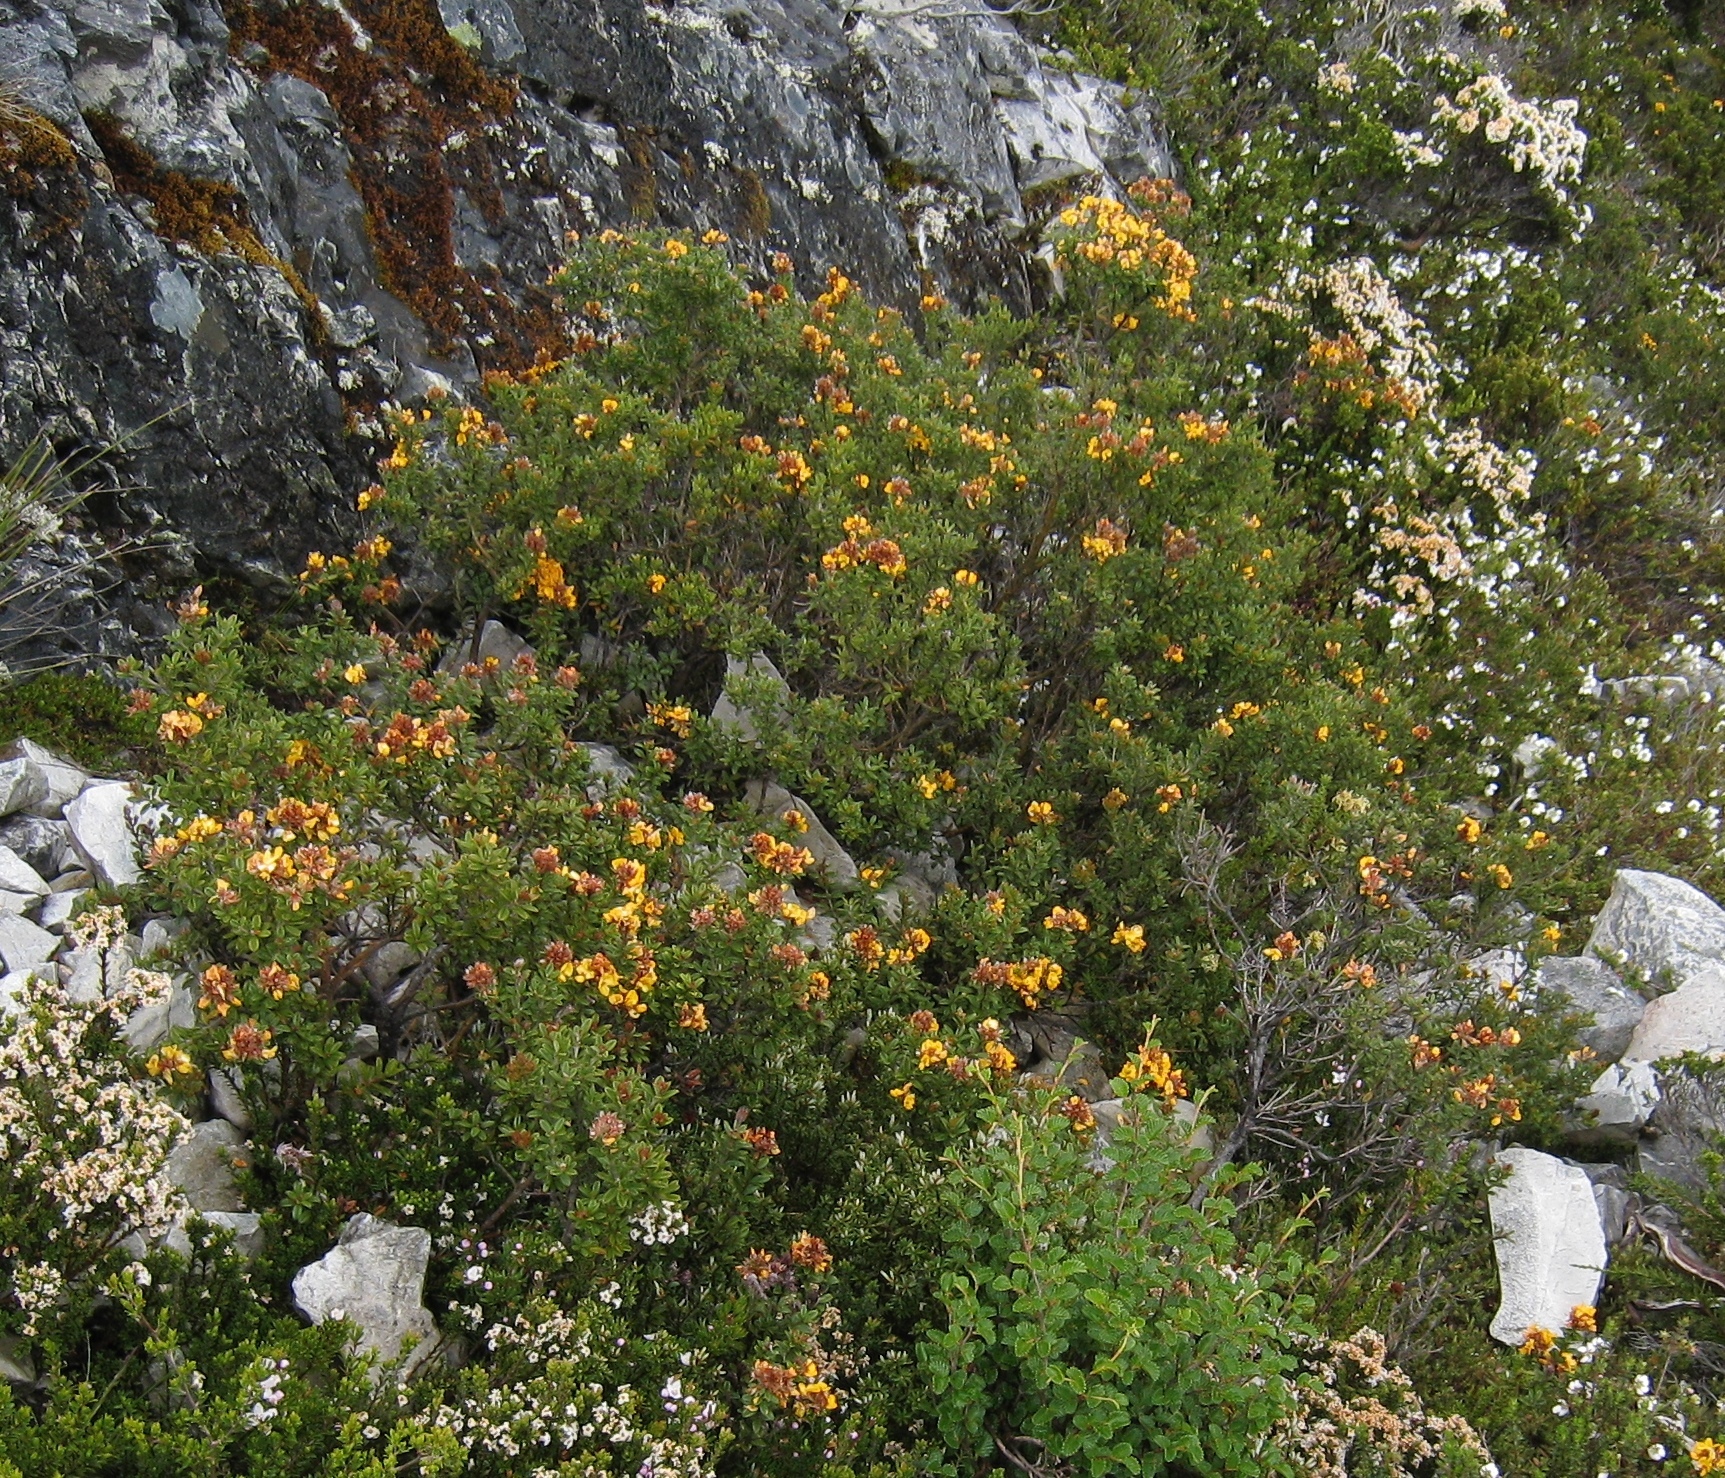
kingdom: Plantae
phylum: Tracheophyta
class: Magnoliopsida
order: Fabales
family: Fabaceae
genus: Oxylobium
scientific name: Oxylobium ellipticum
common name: Golden shaggy-pea
